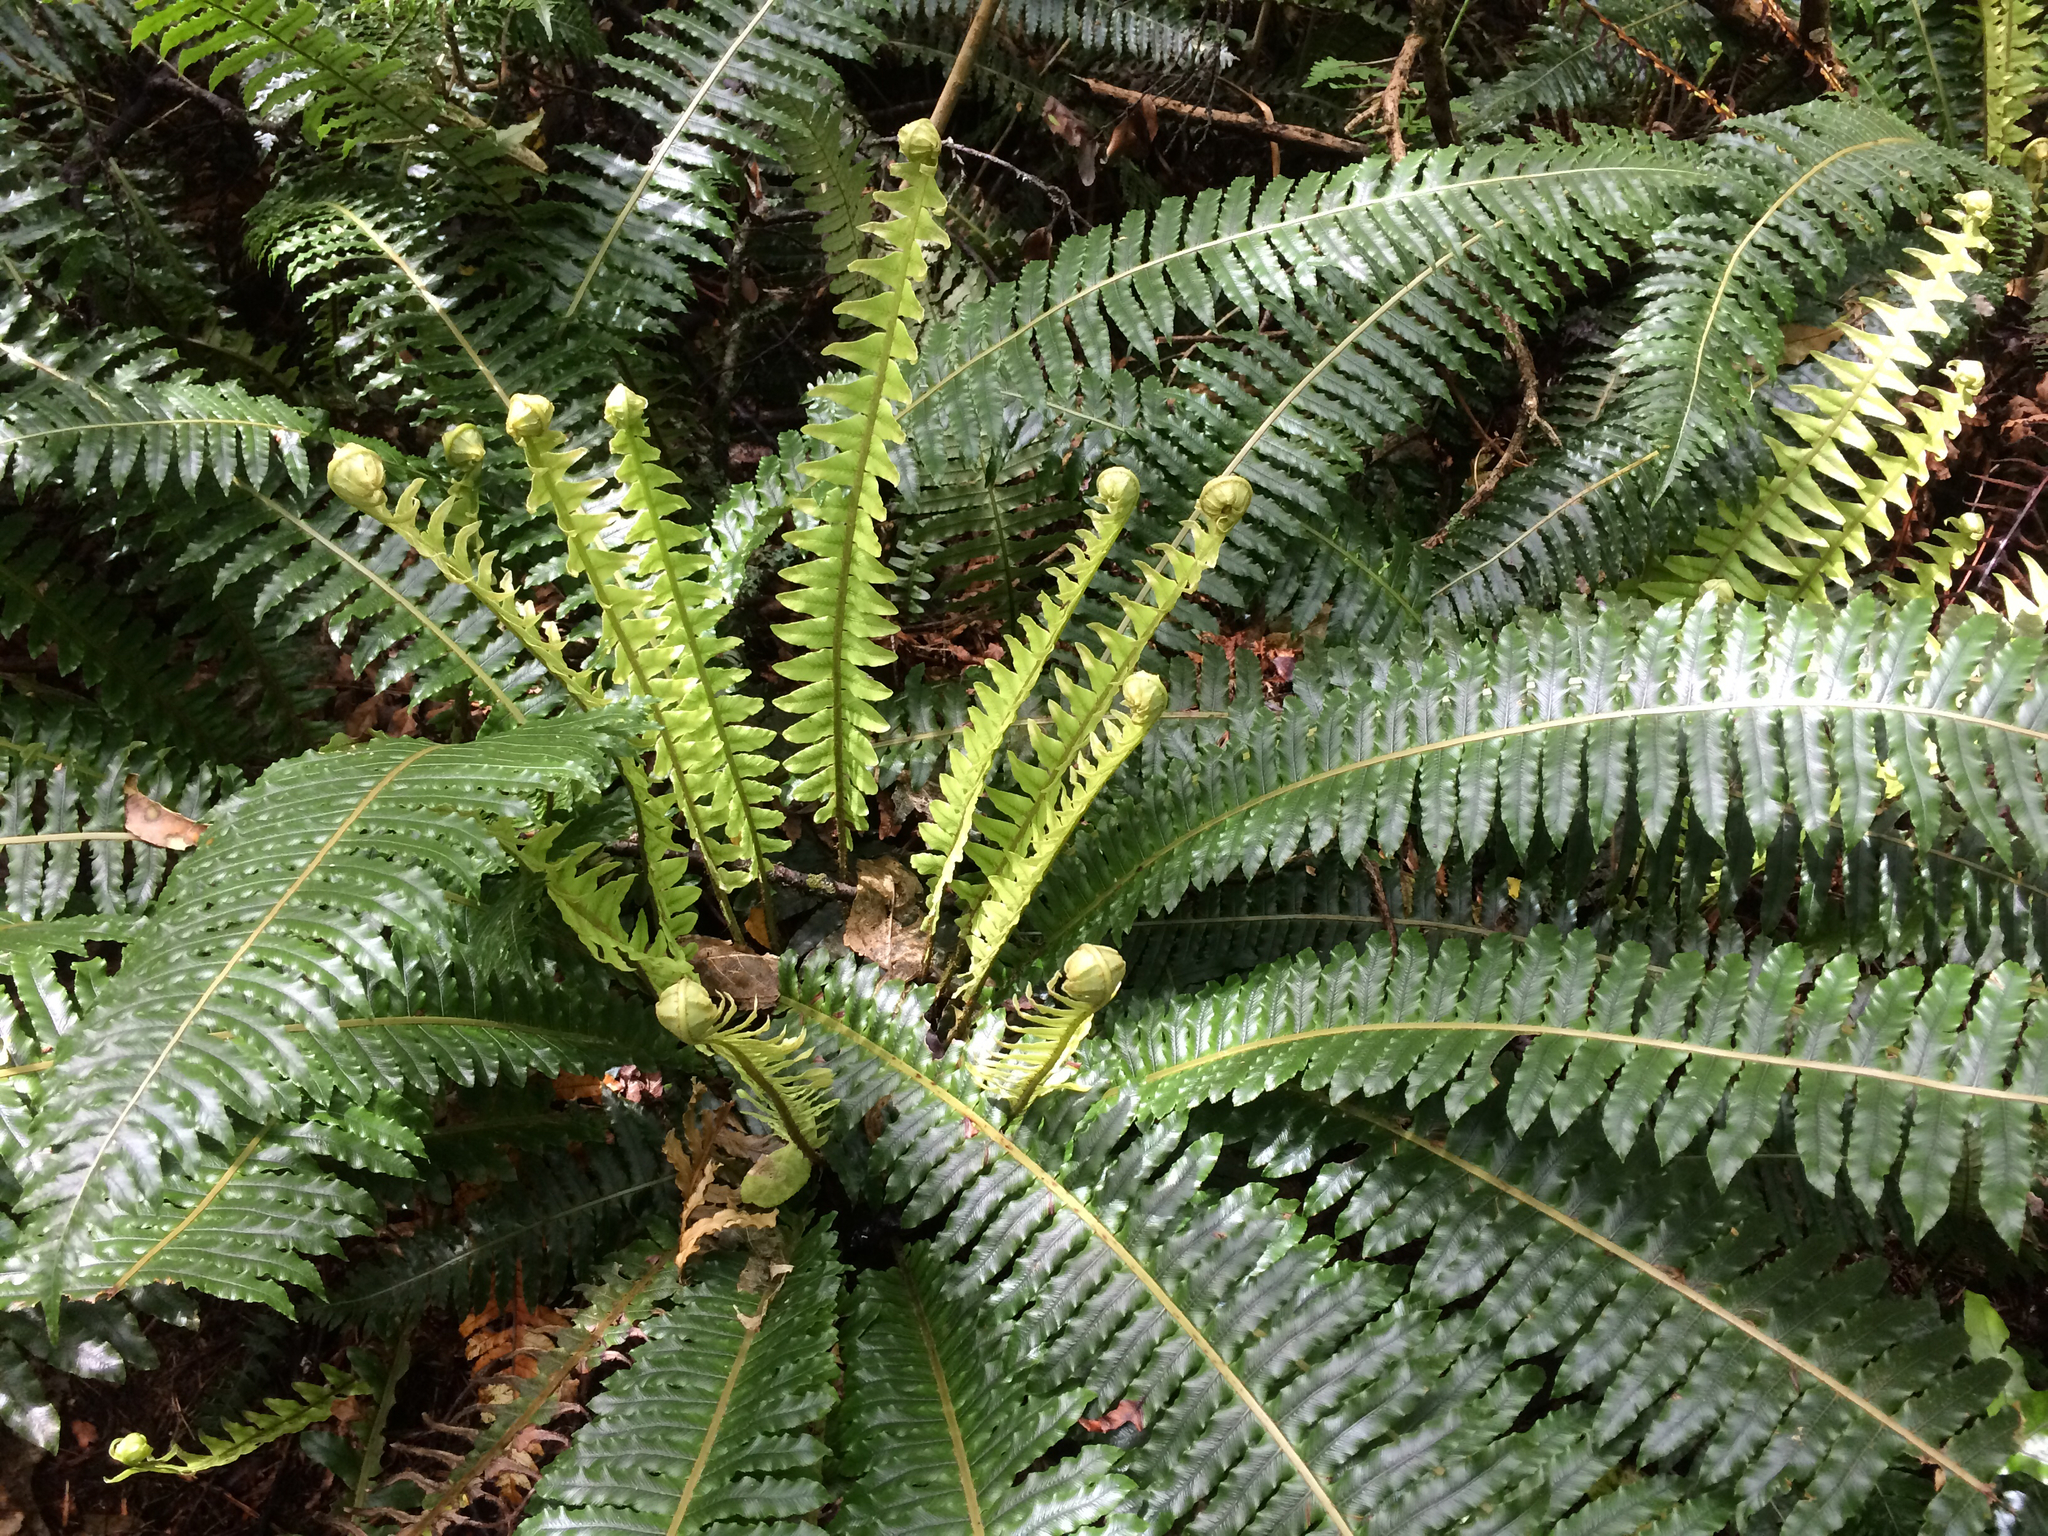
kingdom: Plantae
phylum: Tracheophyta
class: Polypodiopsida
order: Polypodiales
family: Blechnaceae
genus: Lomaria
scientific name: Lomaria discolor
